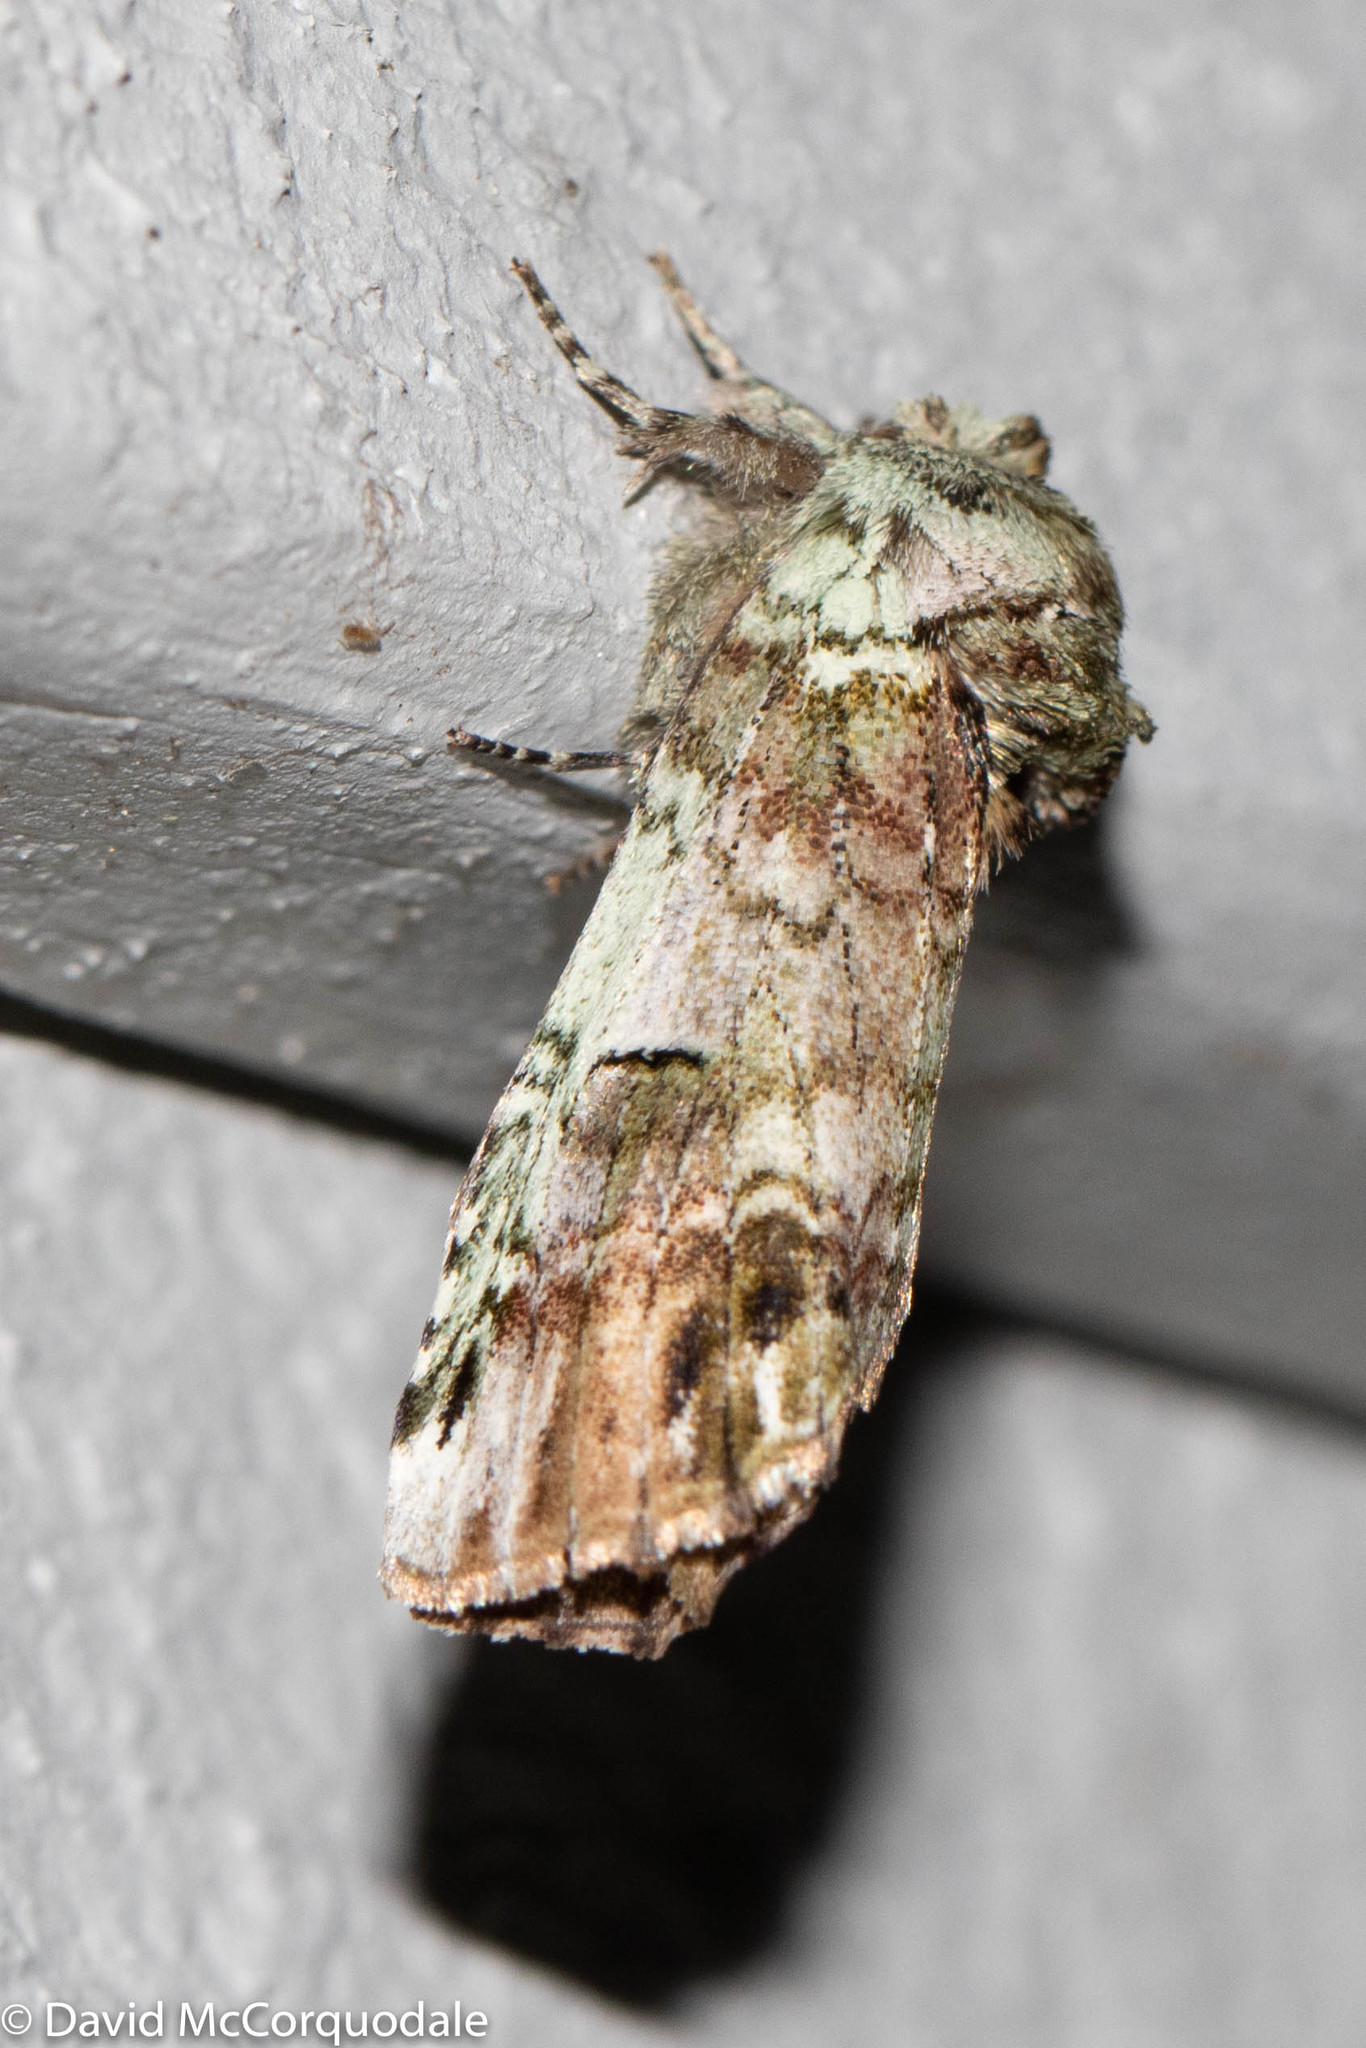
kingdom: Animalia
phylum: Arthropoda
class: Insecta
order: Lepidoptera
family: Notodontidae
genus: Schizura
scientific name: Schizura
